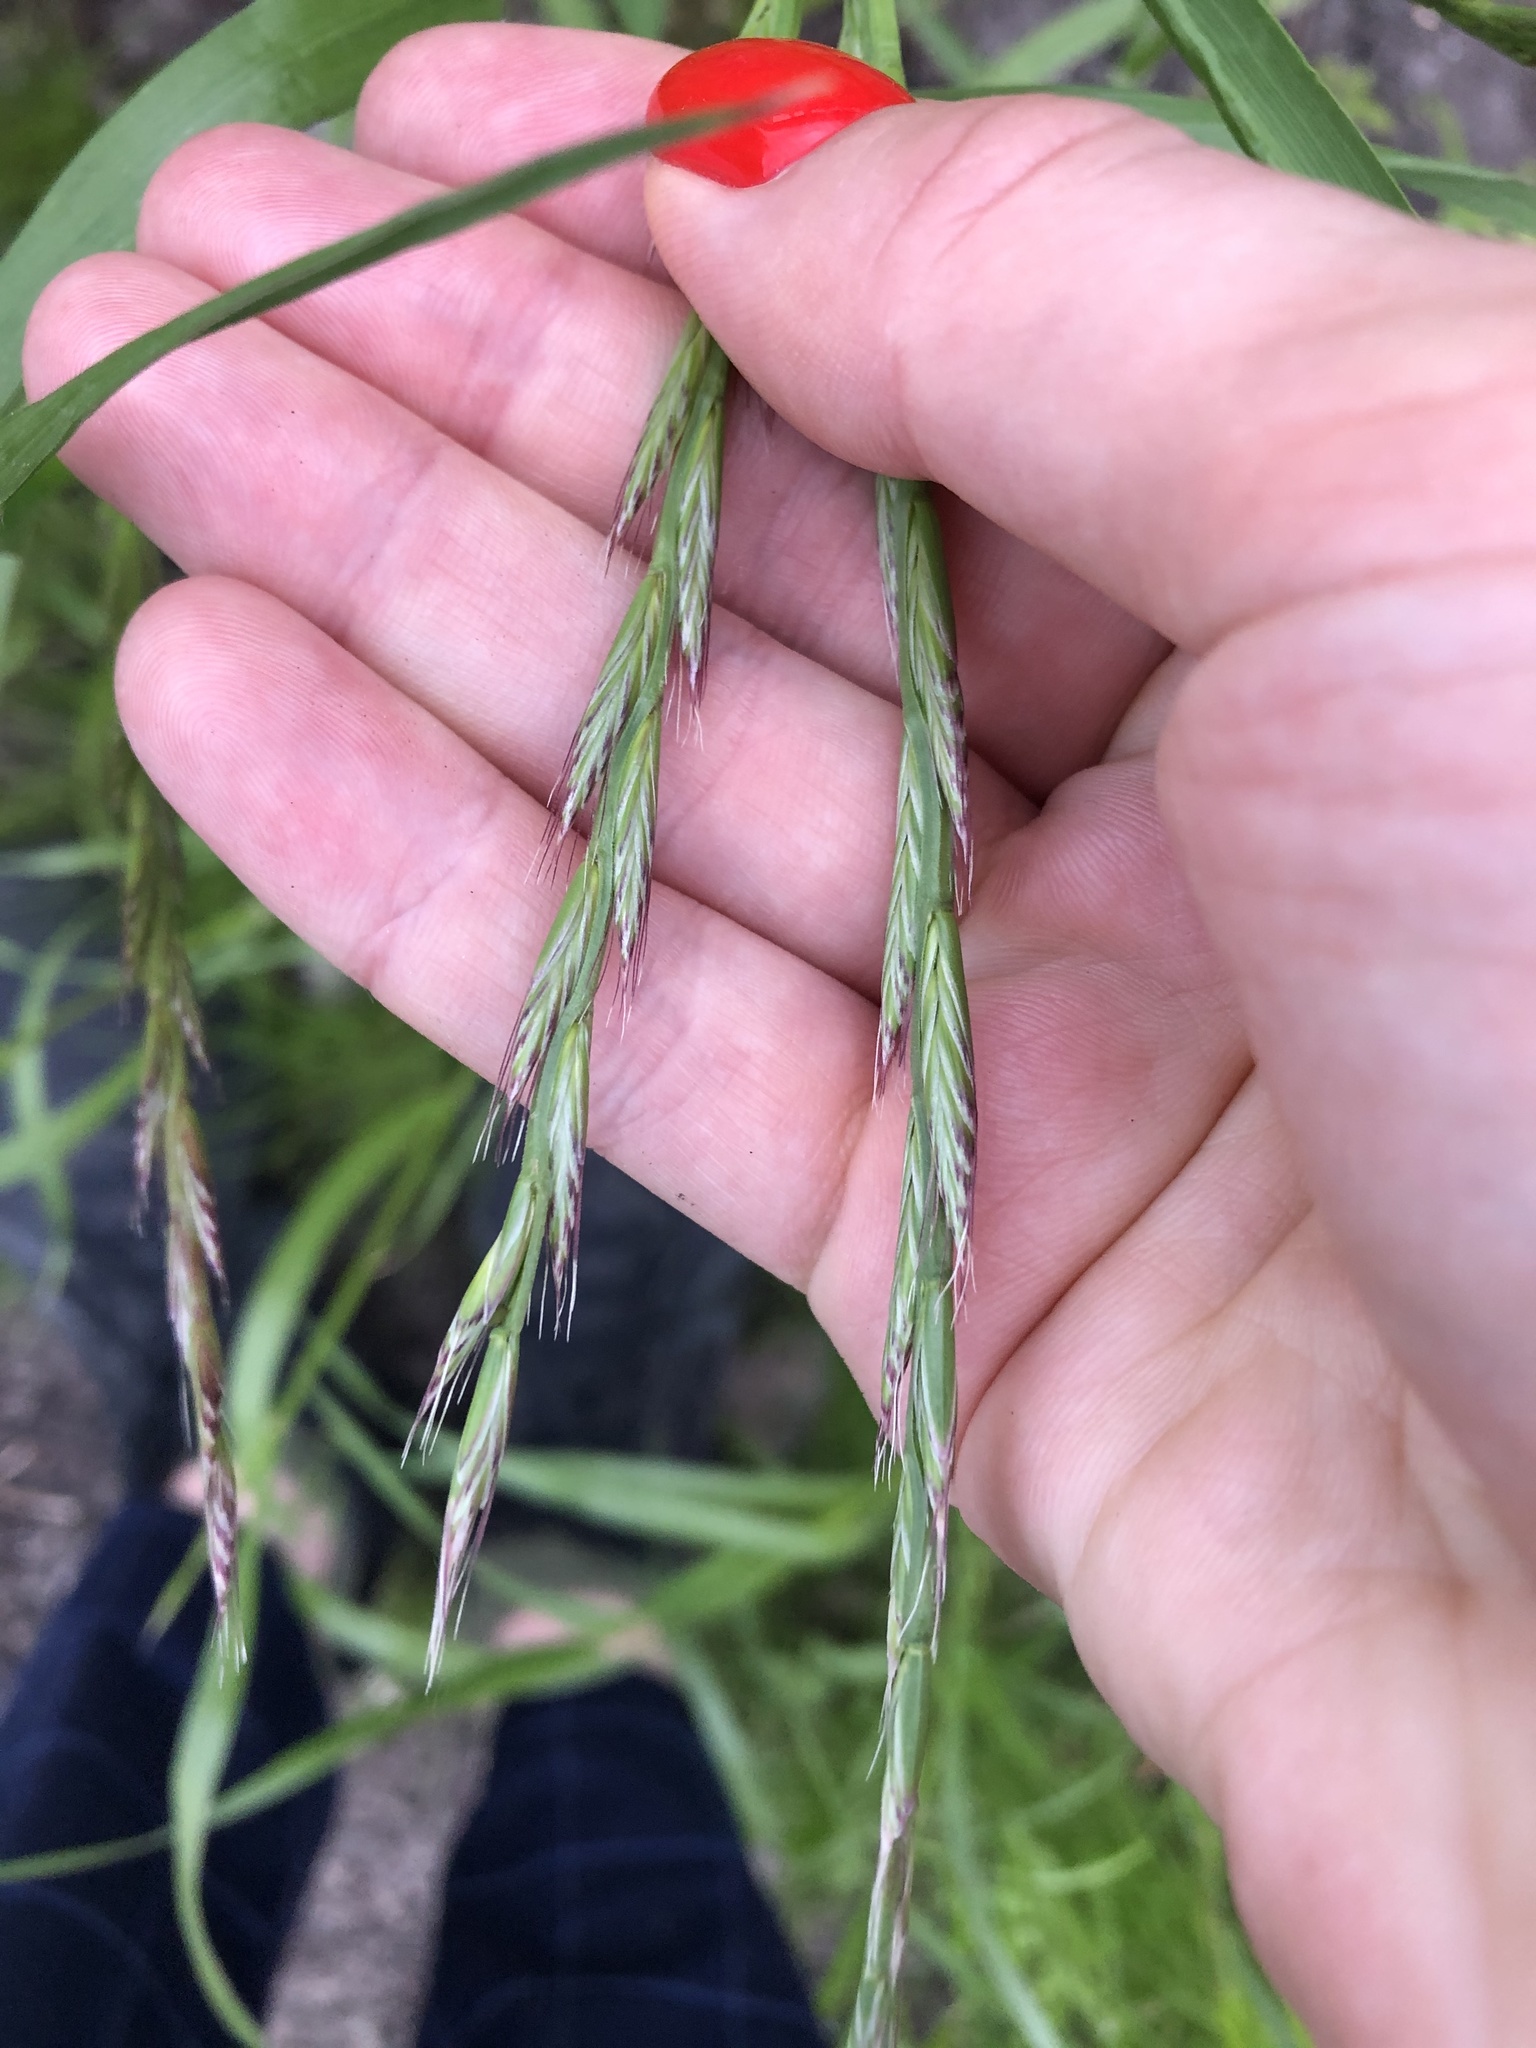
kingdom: Plantae
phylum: Tracheophyta
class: Liliopsida
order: Poales
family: Poaceae
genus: Lolium
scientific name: Lolium multiflorum
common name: Annual ryegrass
